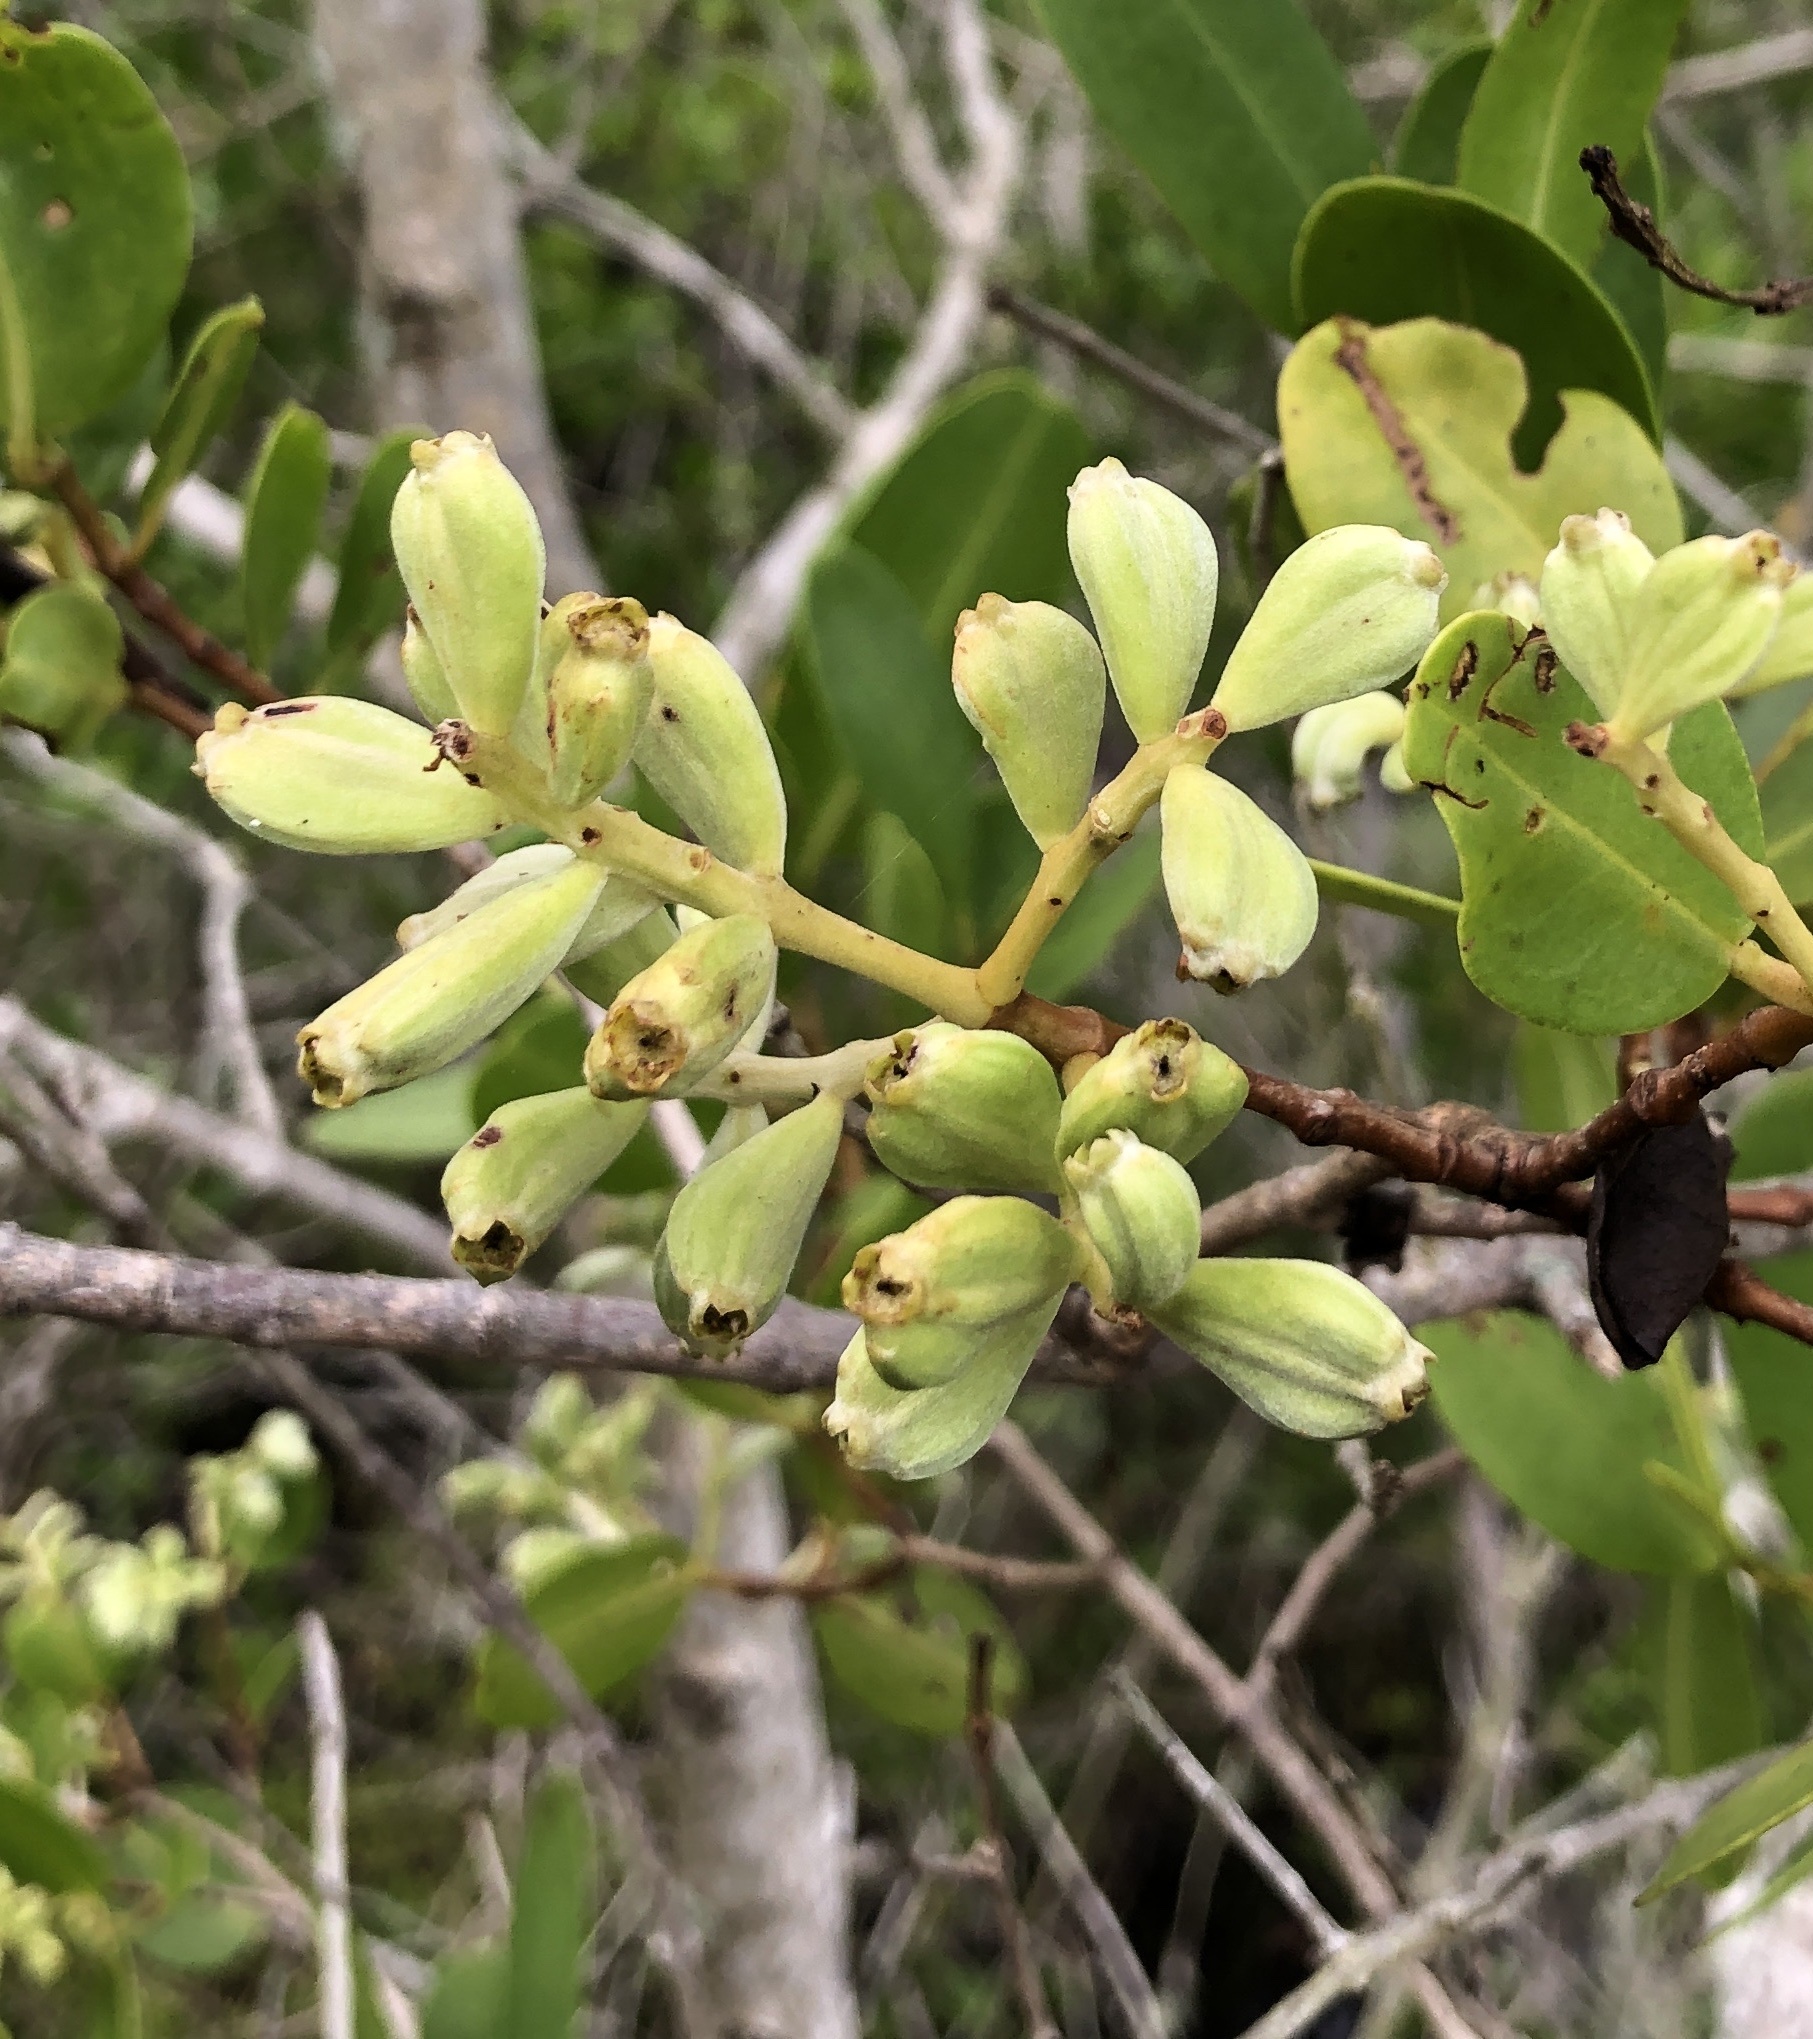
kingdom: Plantae
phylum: Tracheophyta
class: Magnoliopsida
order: Myrtales
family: Combretaceae
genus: Laguncularia
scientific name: Laguncularia racemosa
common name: White mangrove
